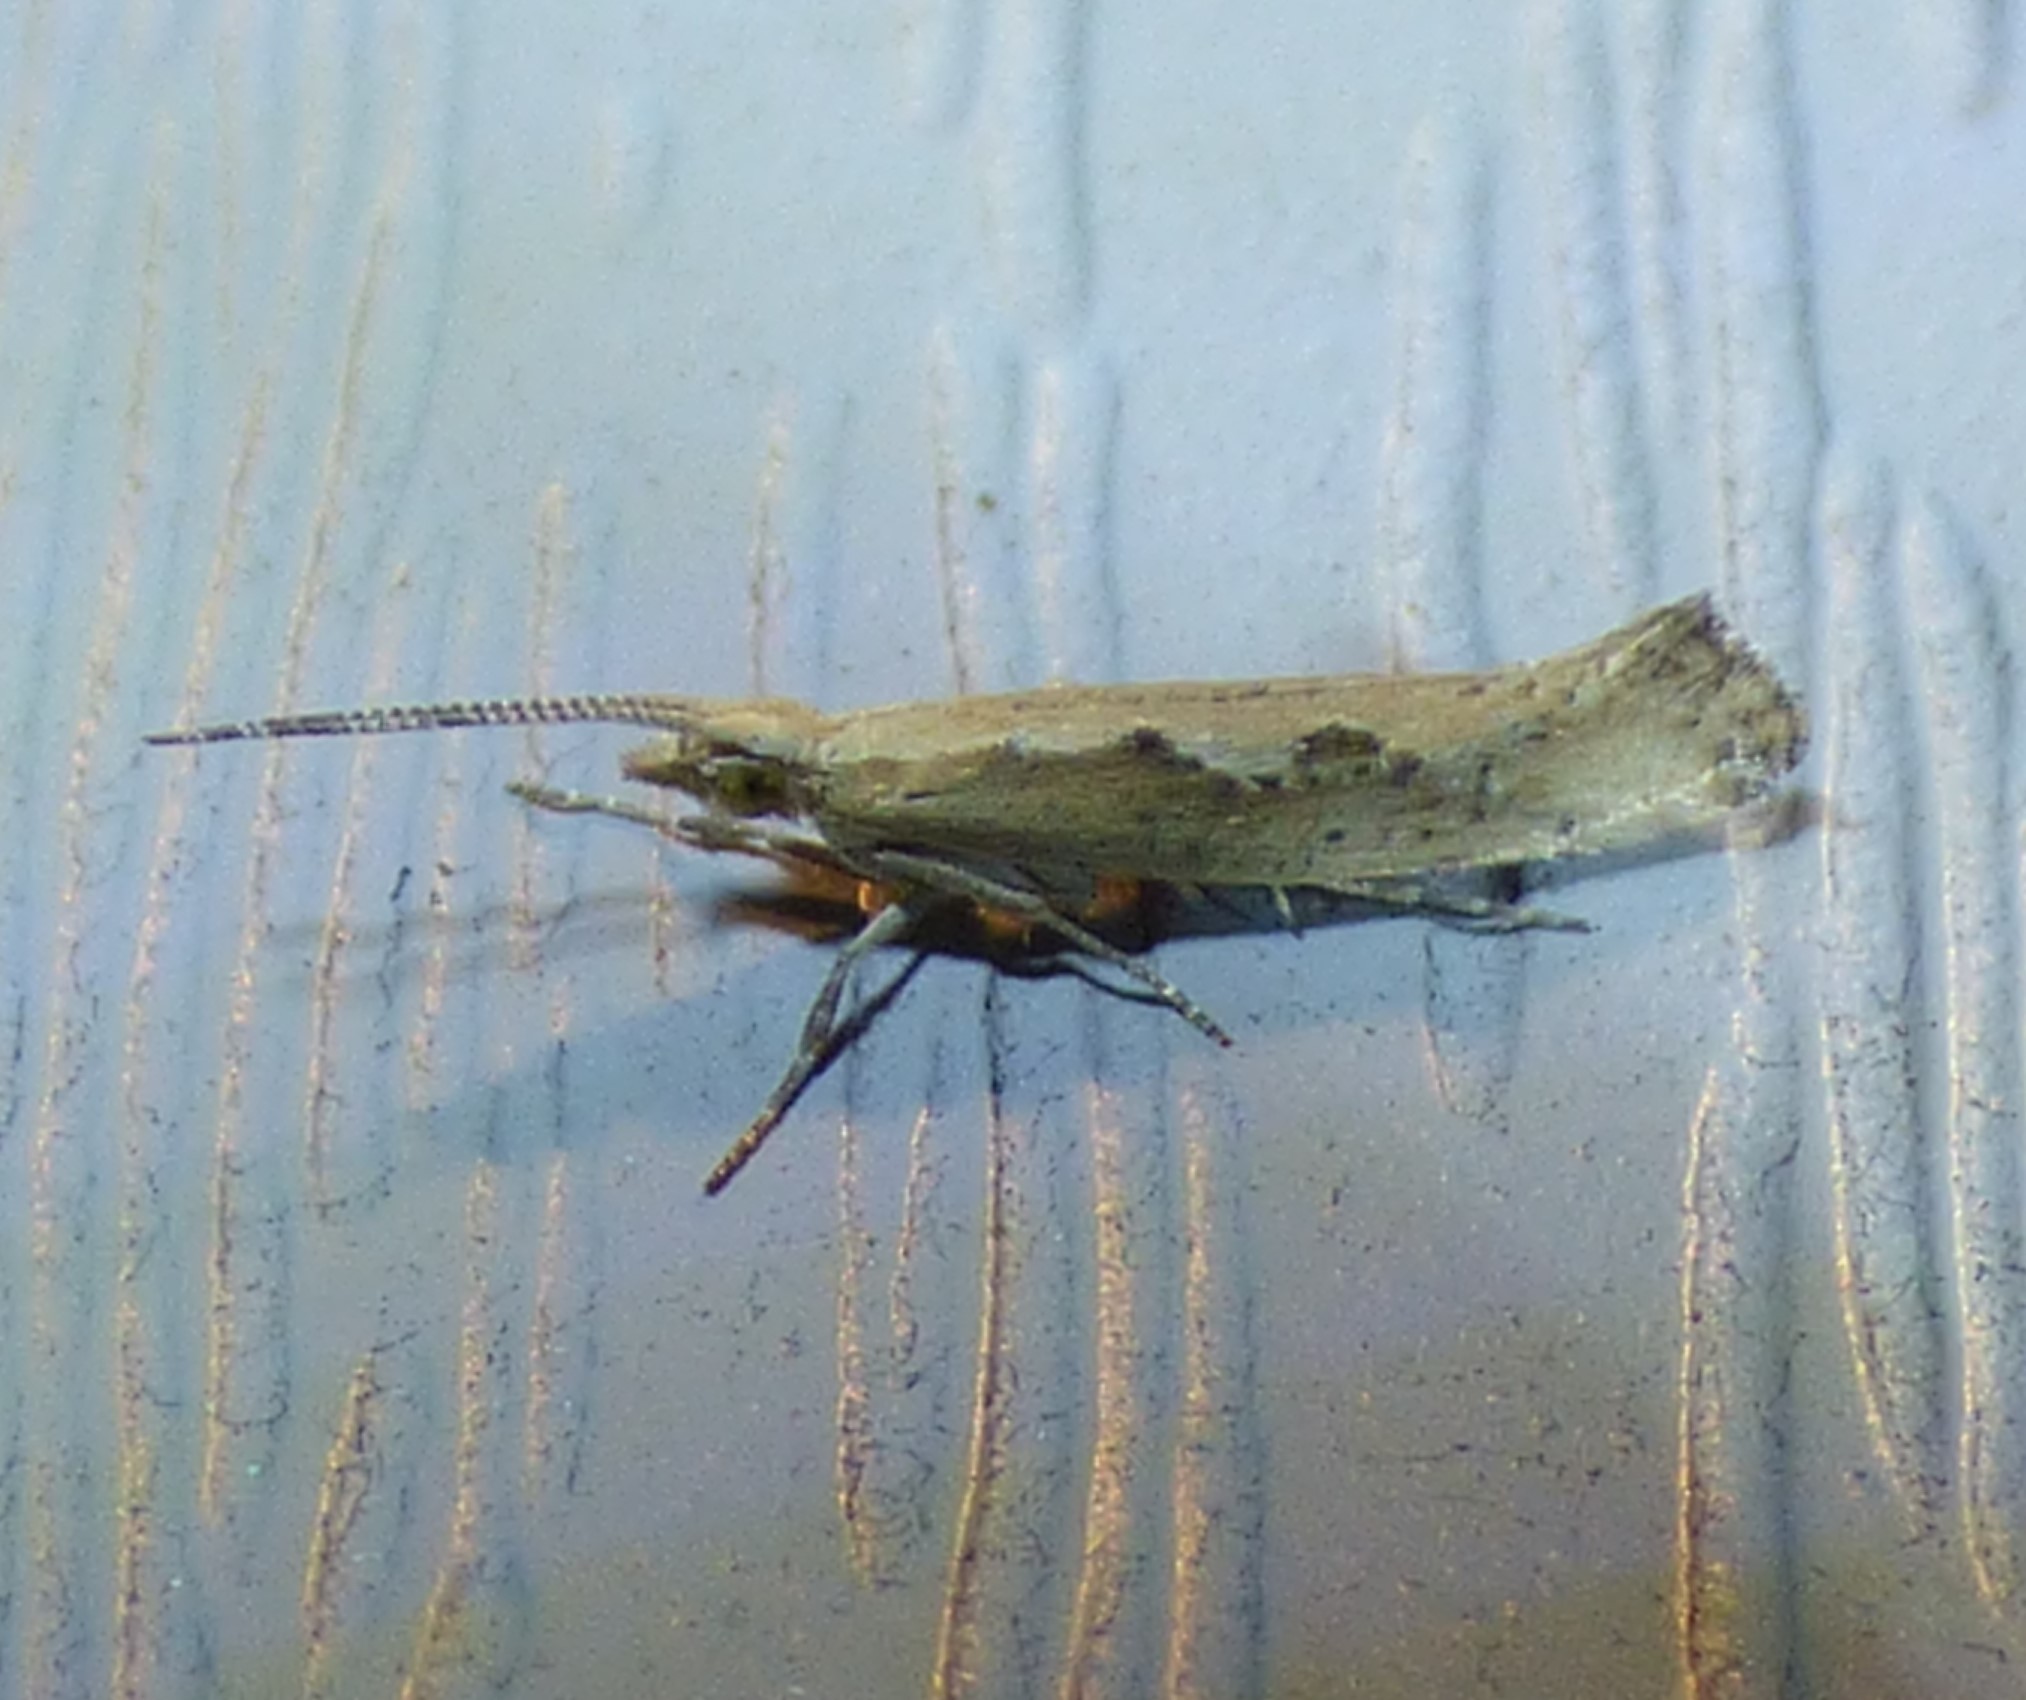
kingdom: Animalia
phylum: Arthropoda
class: Insecta
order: Lepidoptera
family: Plutellidae
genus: Plutella
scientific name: Plutella xylostella
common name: Diamond-back moth
